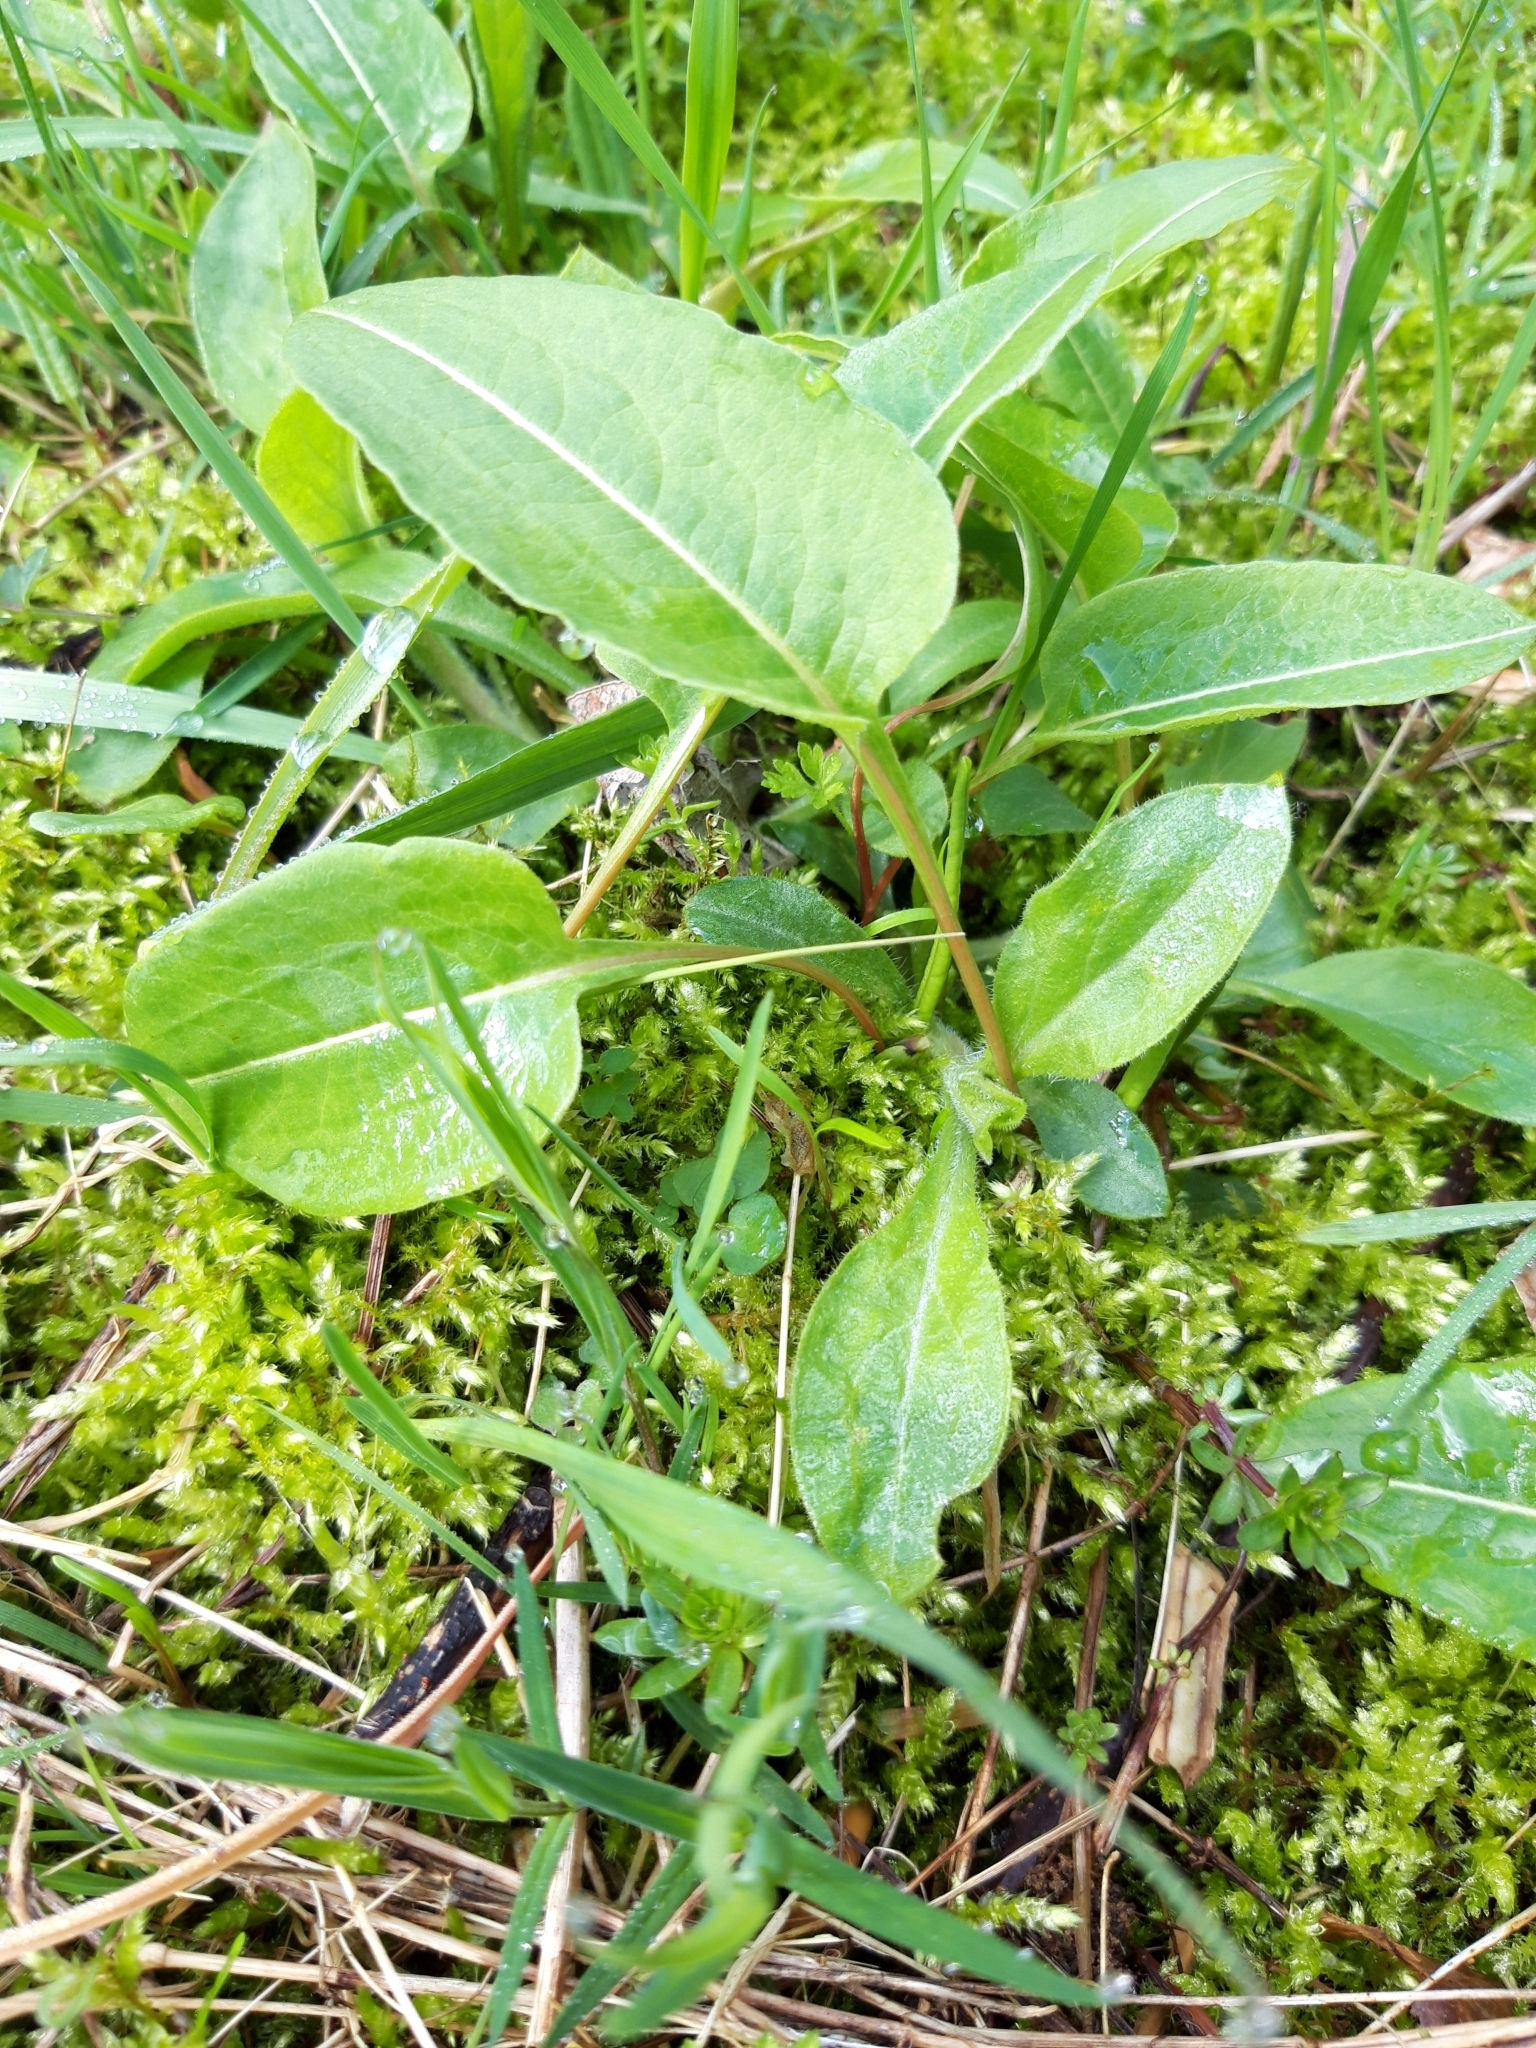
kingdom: Plantae
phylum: Tracheophyta
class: Magnoliopsida
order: Caryophyllales
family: Polygonaceae
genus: Bistorta
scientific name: Bistorta officinalis
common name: Common bistort
